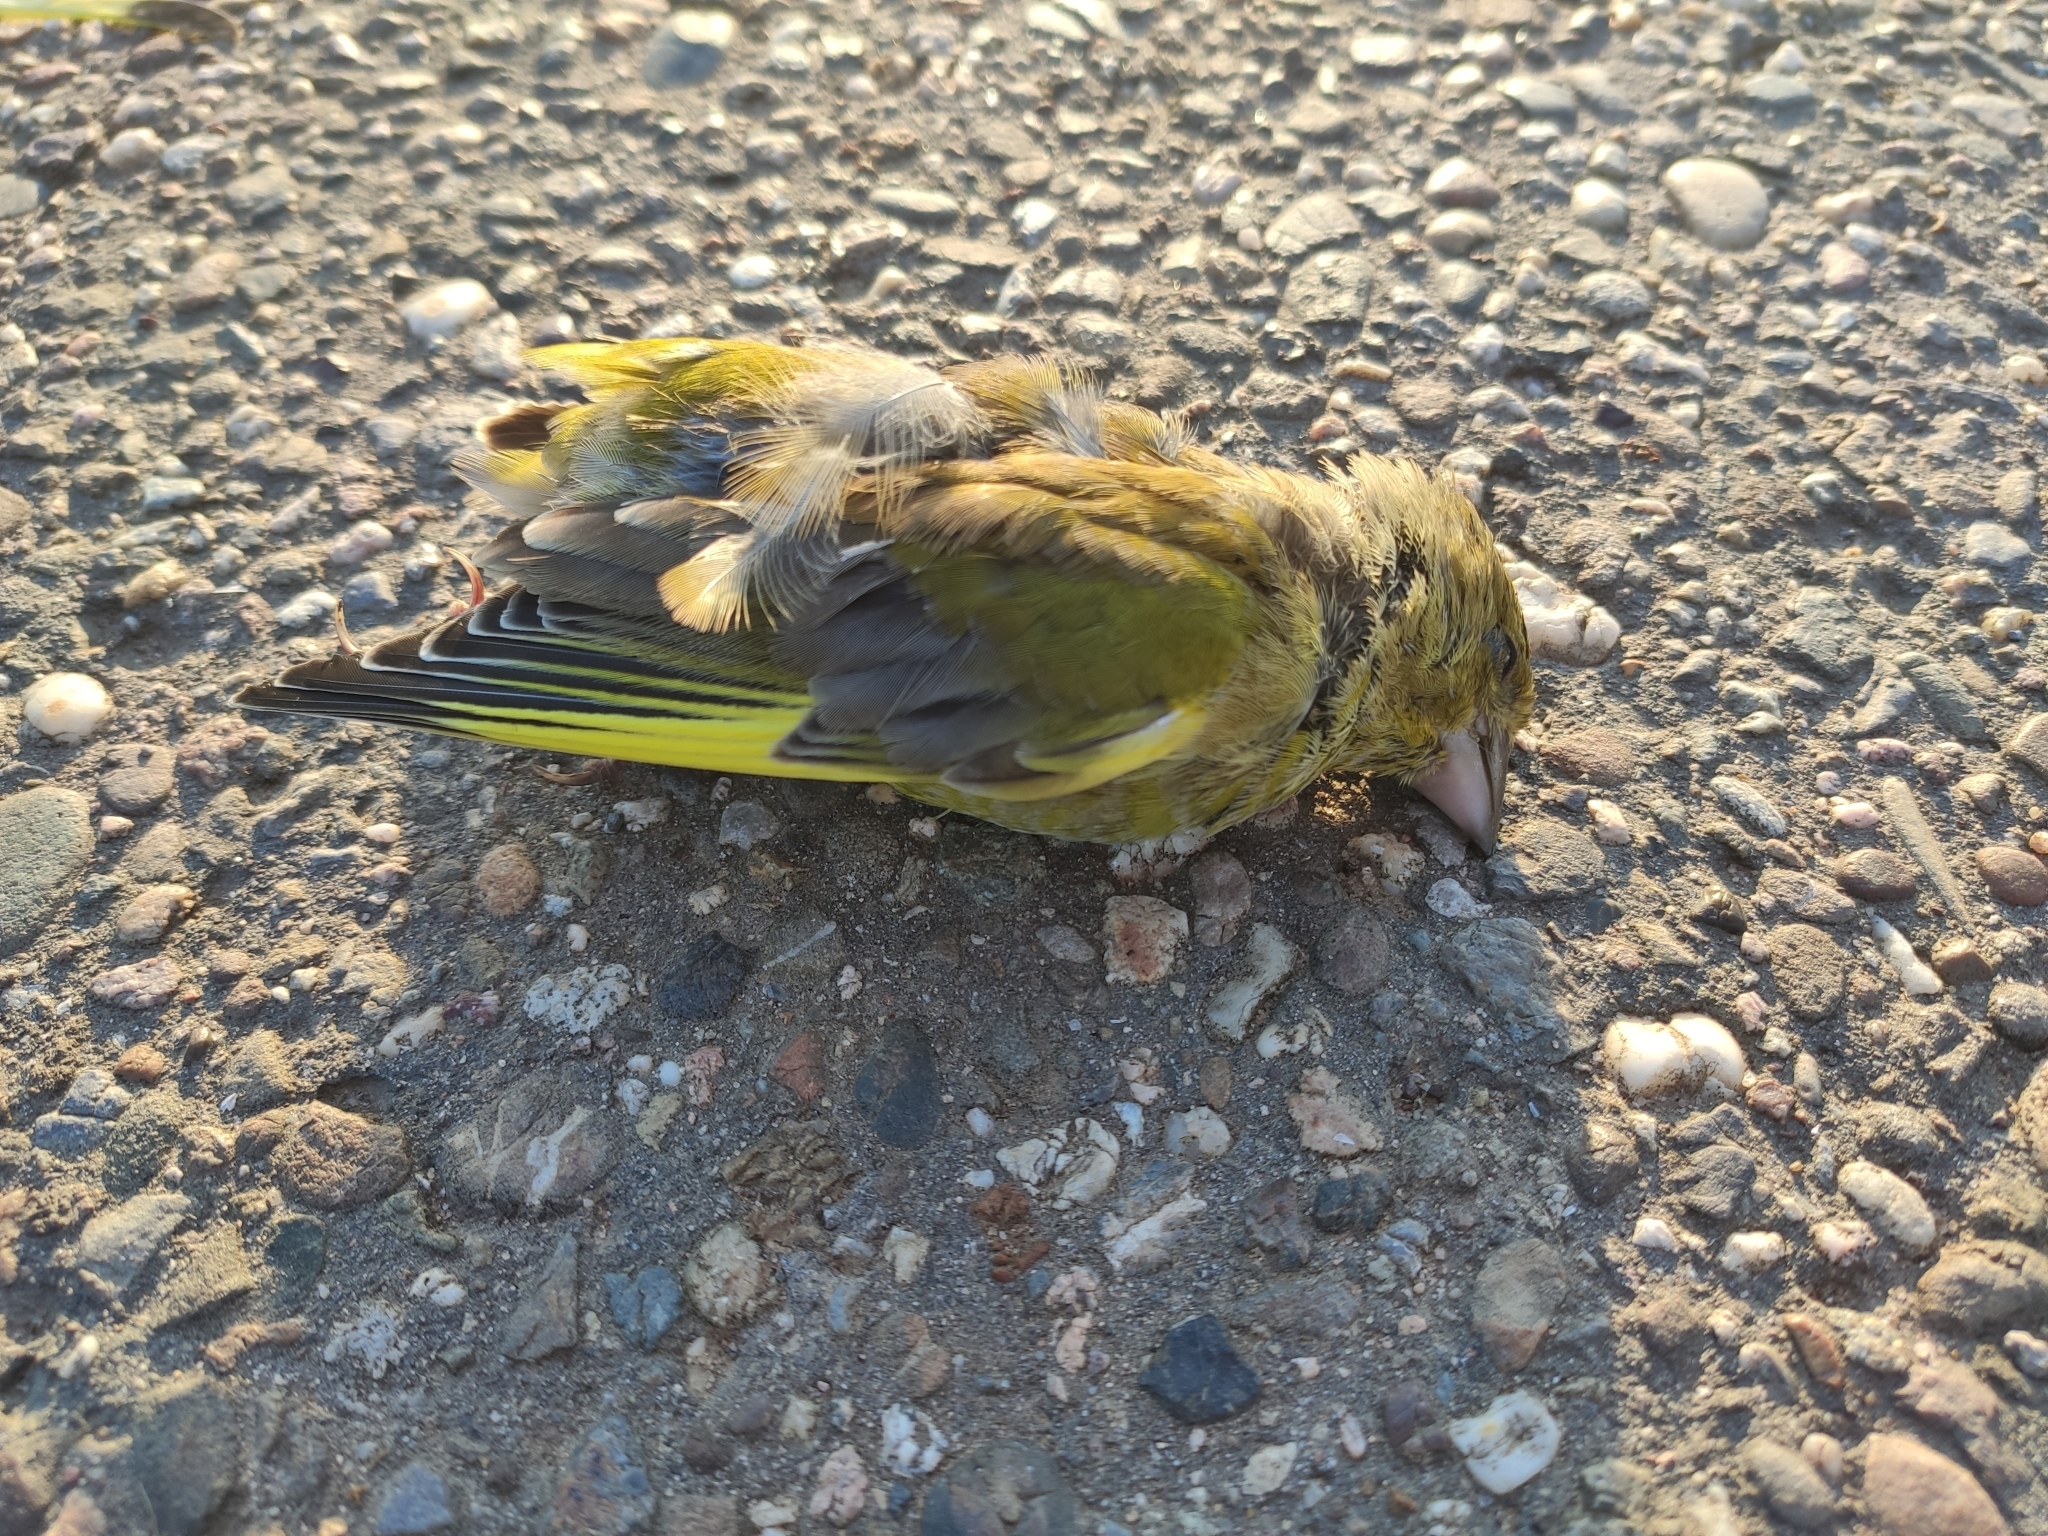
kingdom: Plantae
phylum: Tracheophyta
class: Liliopsida
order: Poales
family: Poaceae
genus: Chloris
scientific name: Chloris chloris
